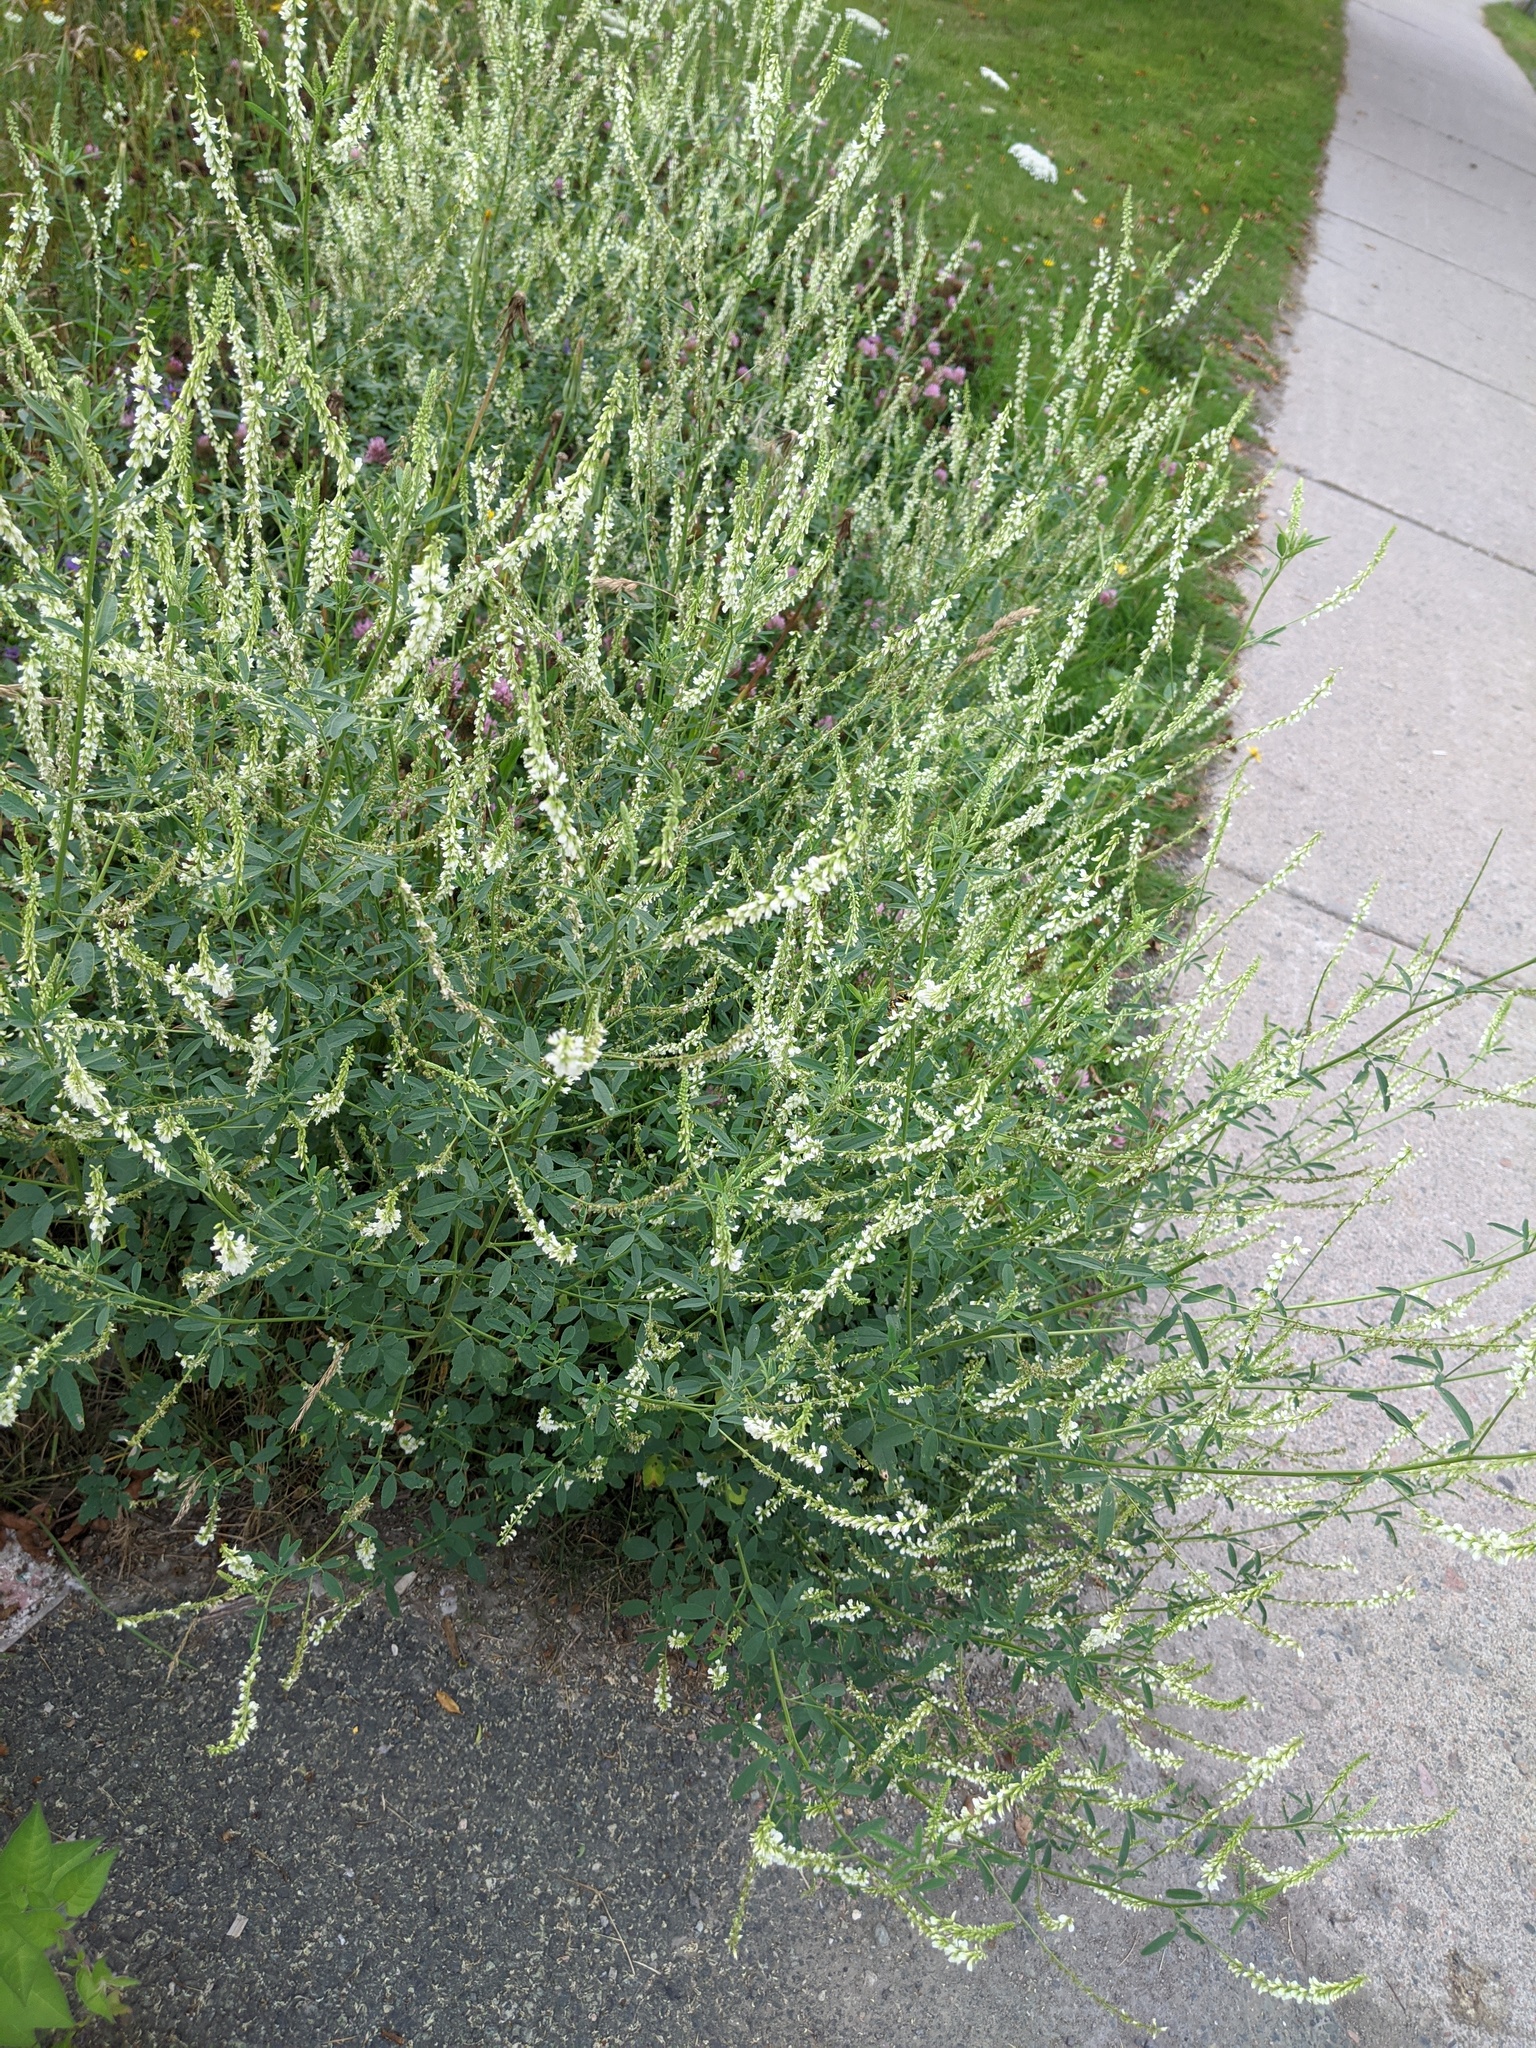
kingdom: Plantae
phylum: Tracheophyta
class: Magnoliopsida
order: Fabales
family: Fabaceae
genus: Melilotus
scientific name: Melilotus albus
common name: White melilot
